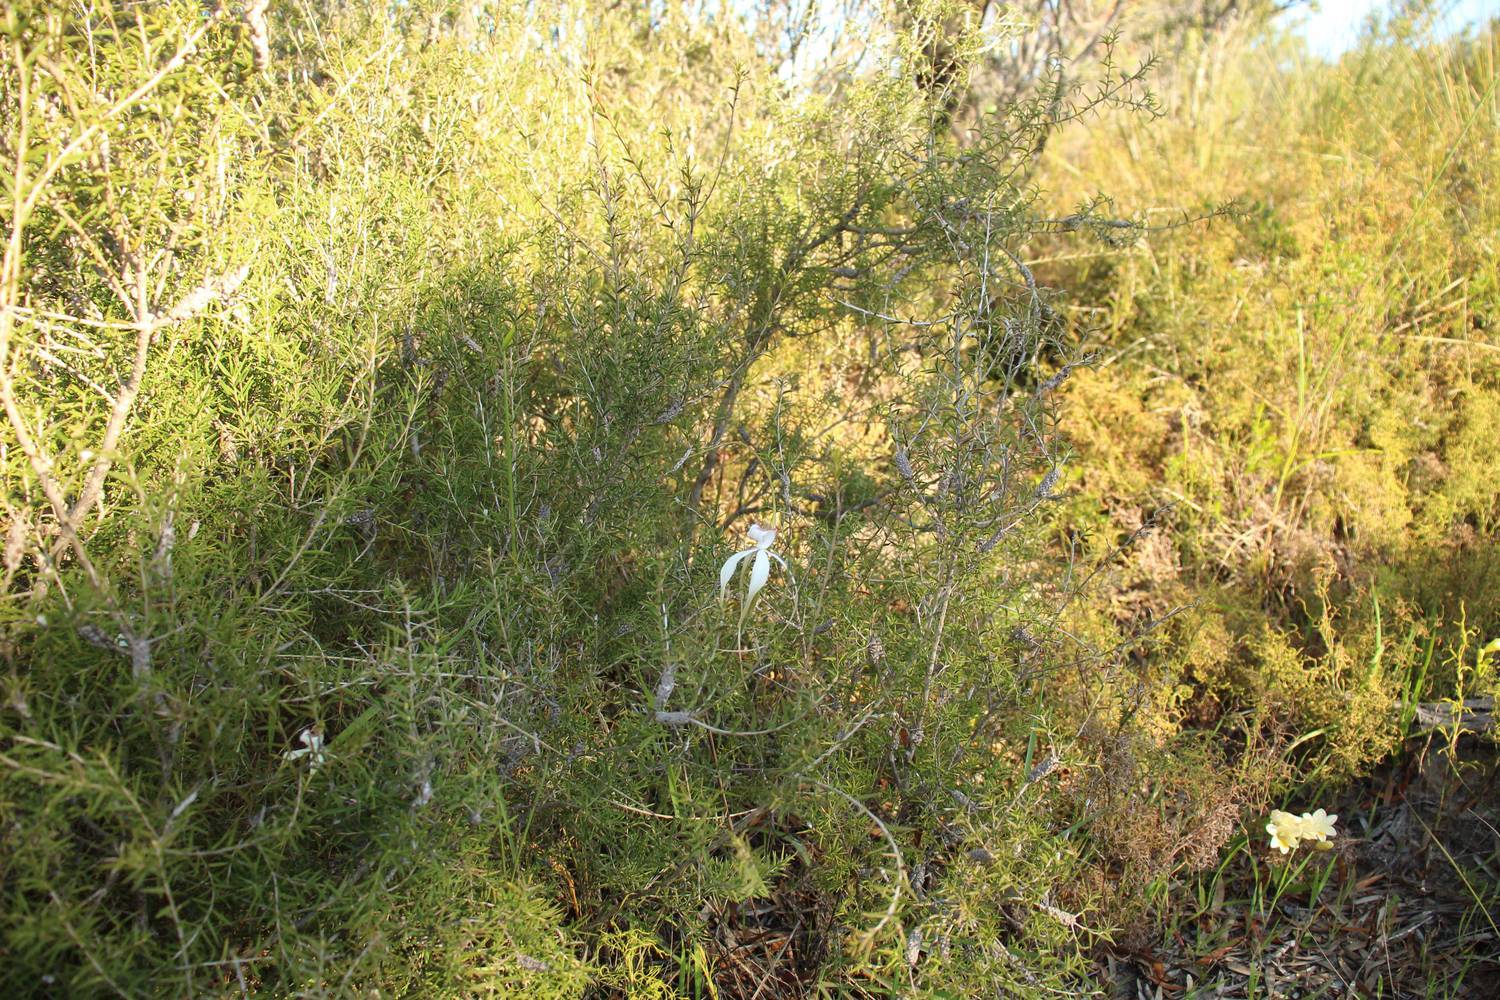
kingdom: Plantae
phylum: Tracheophyta
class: Liliopsida
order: Asparagales
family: Orchidaceae
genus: Caladenia
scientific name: Caladenia longicauda
